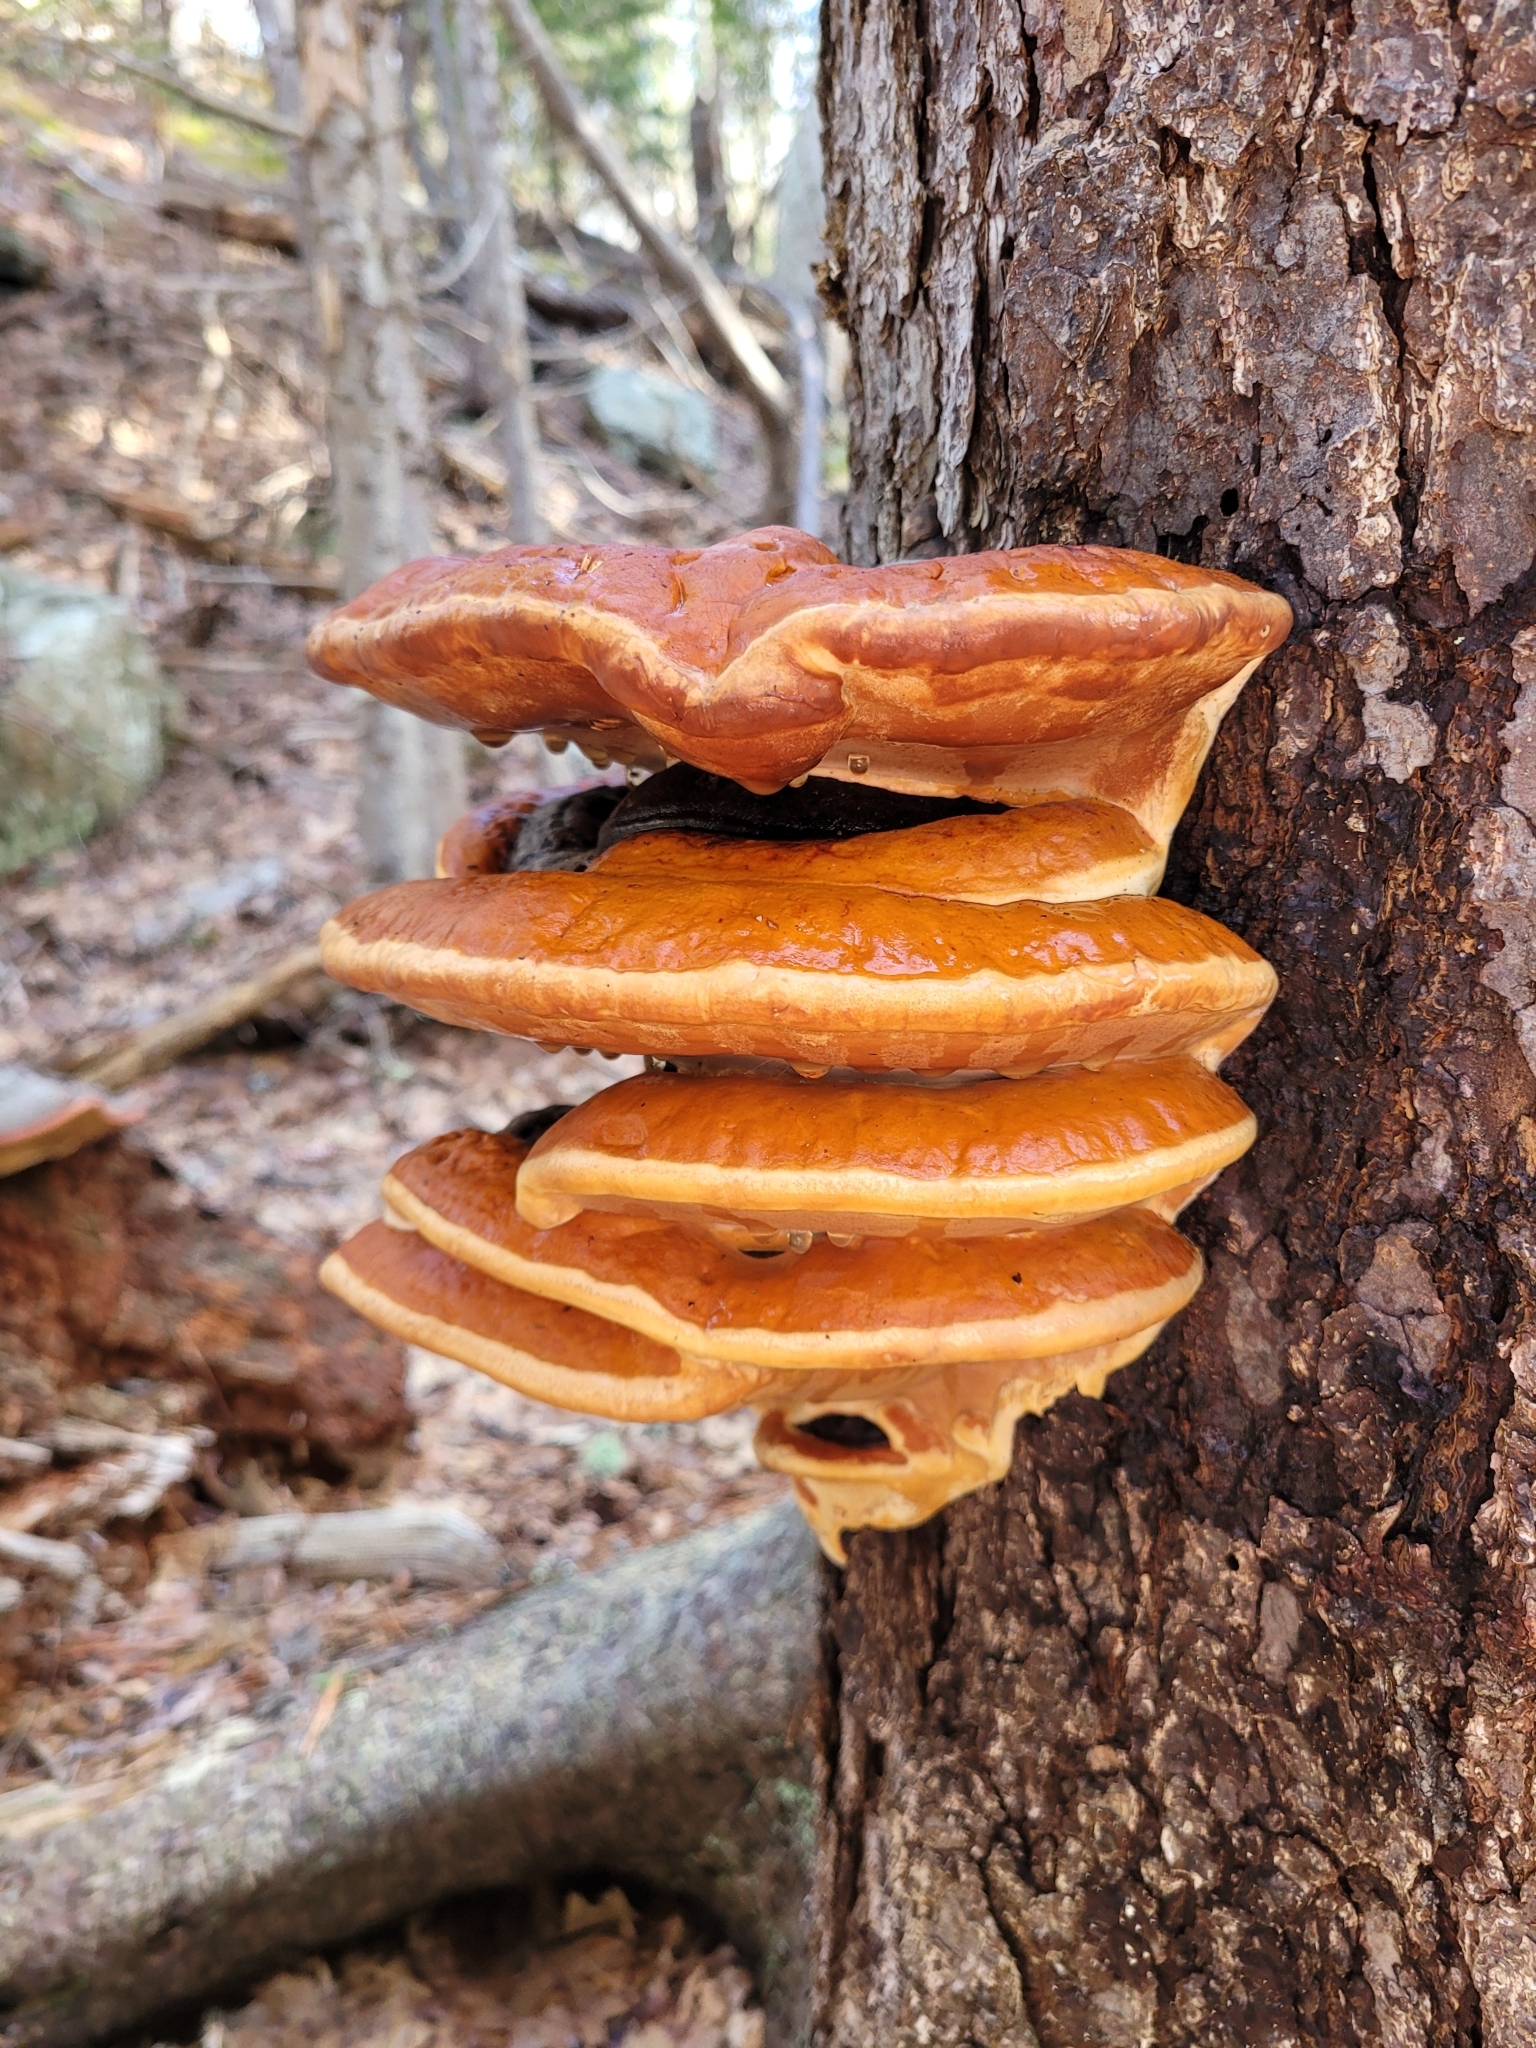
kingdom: Fungi
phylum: Basidiomycota
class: Agaricomycetes
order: Polyporales
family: Fomitopsidaceae
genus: Fomitopsis
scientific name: Fomitopsis mounceae
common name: Northern red belt
